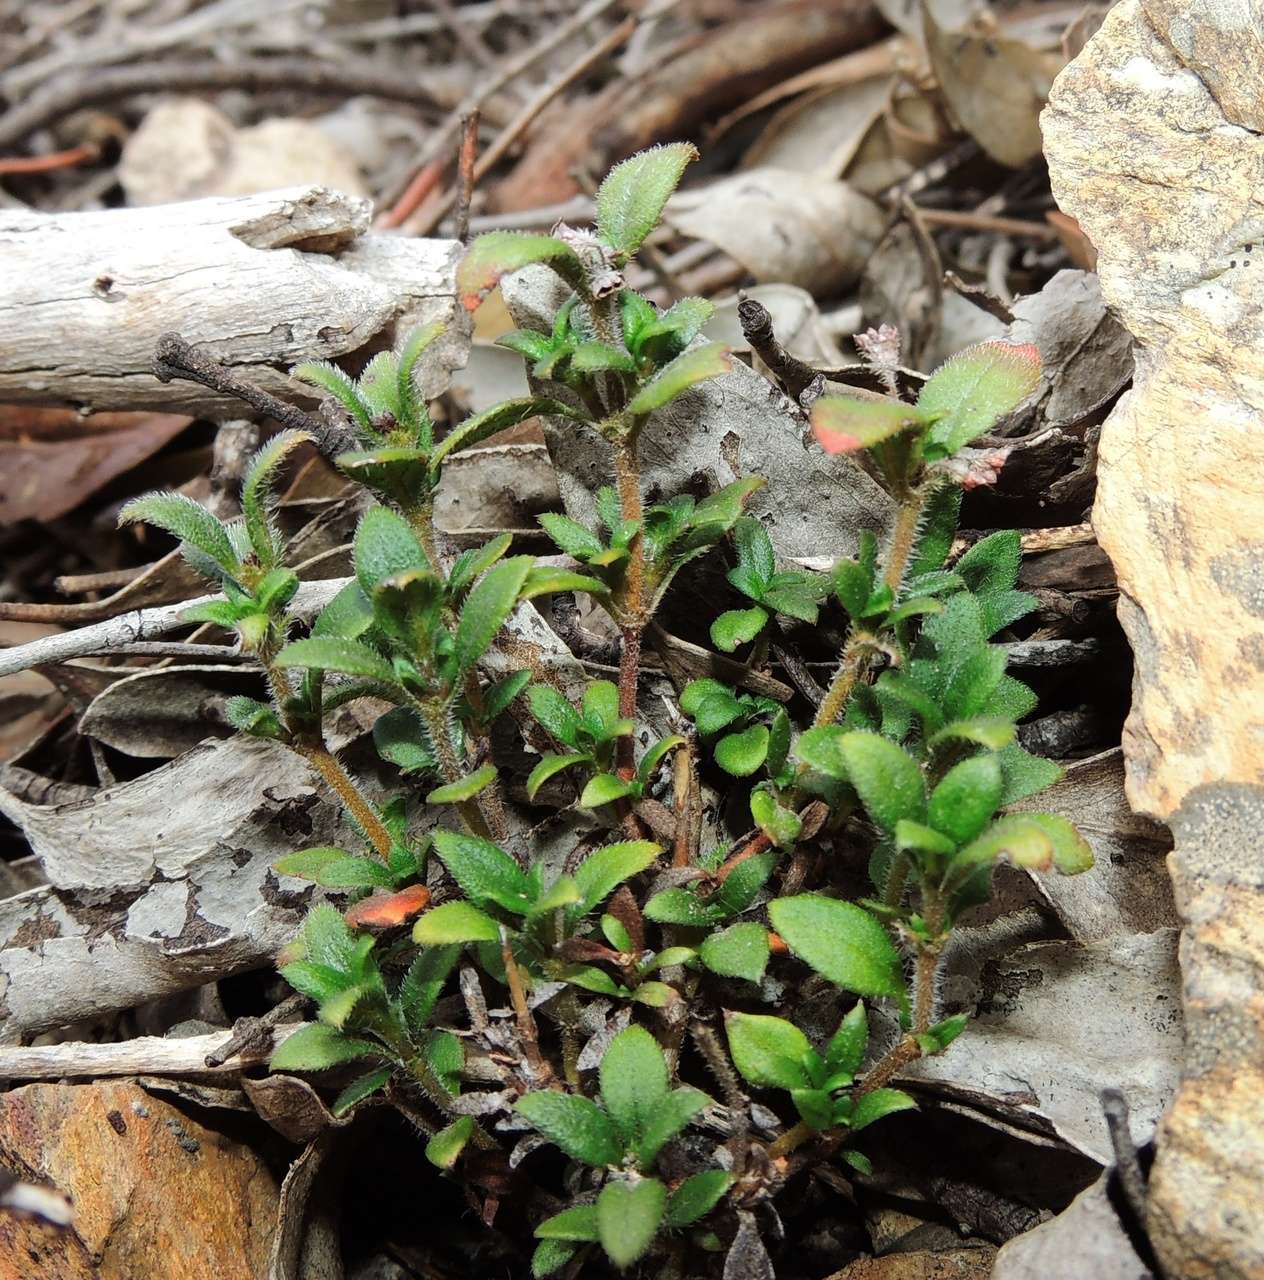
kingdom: Plantae
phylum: Tracheophyta
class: Magnoliopsida
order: Gentianales
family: Rubiaceae
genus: Pomax
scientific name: Pomax umbellata
